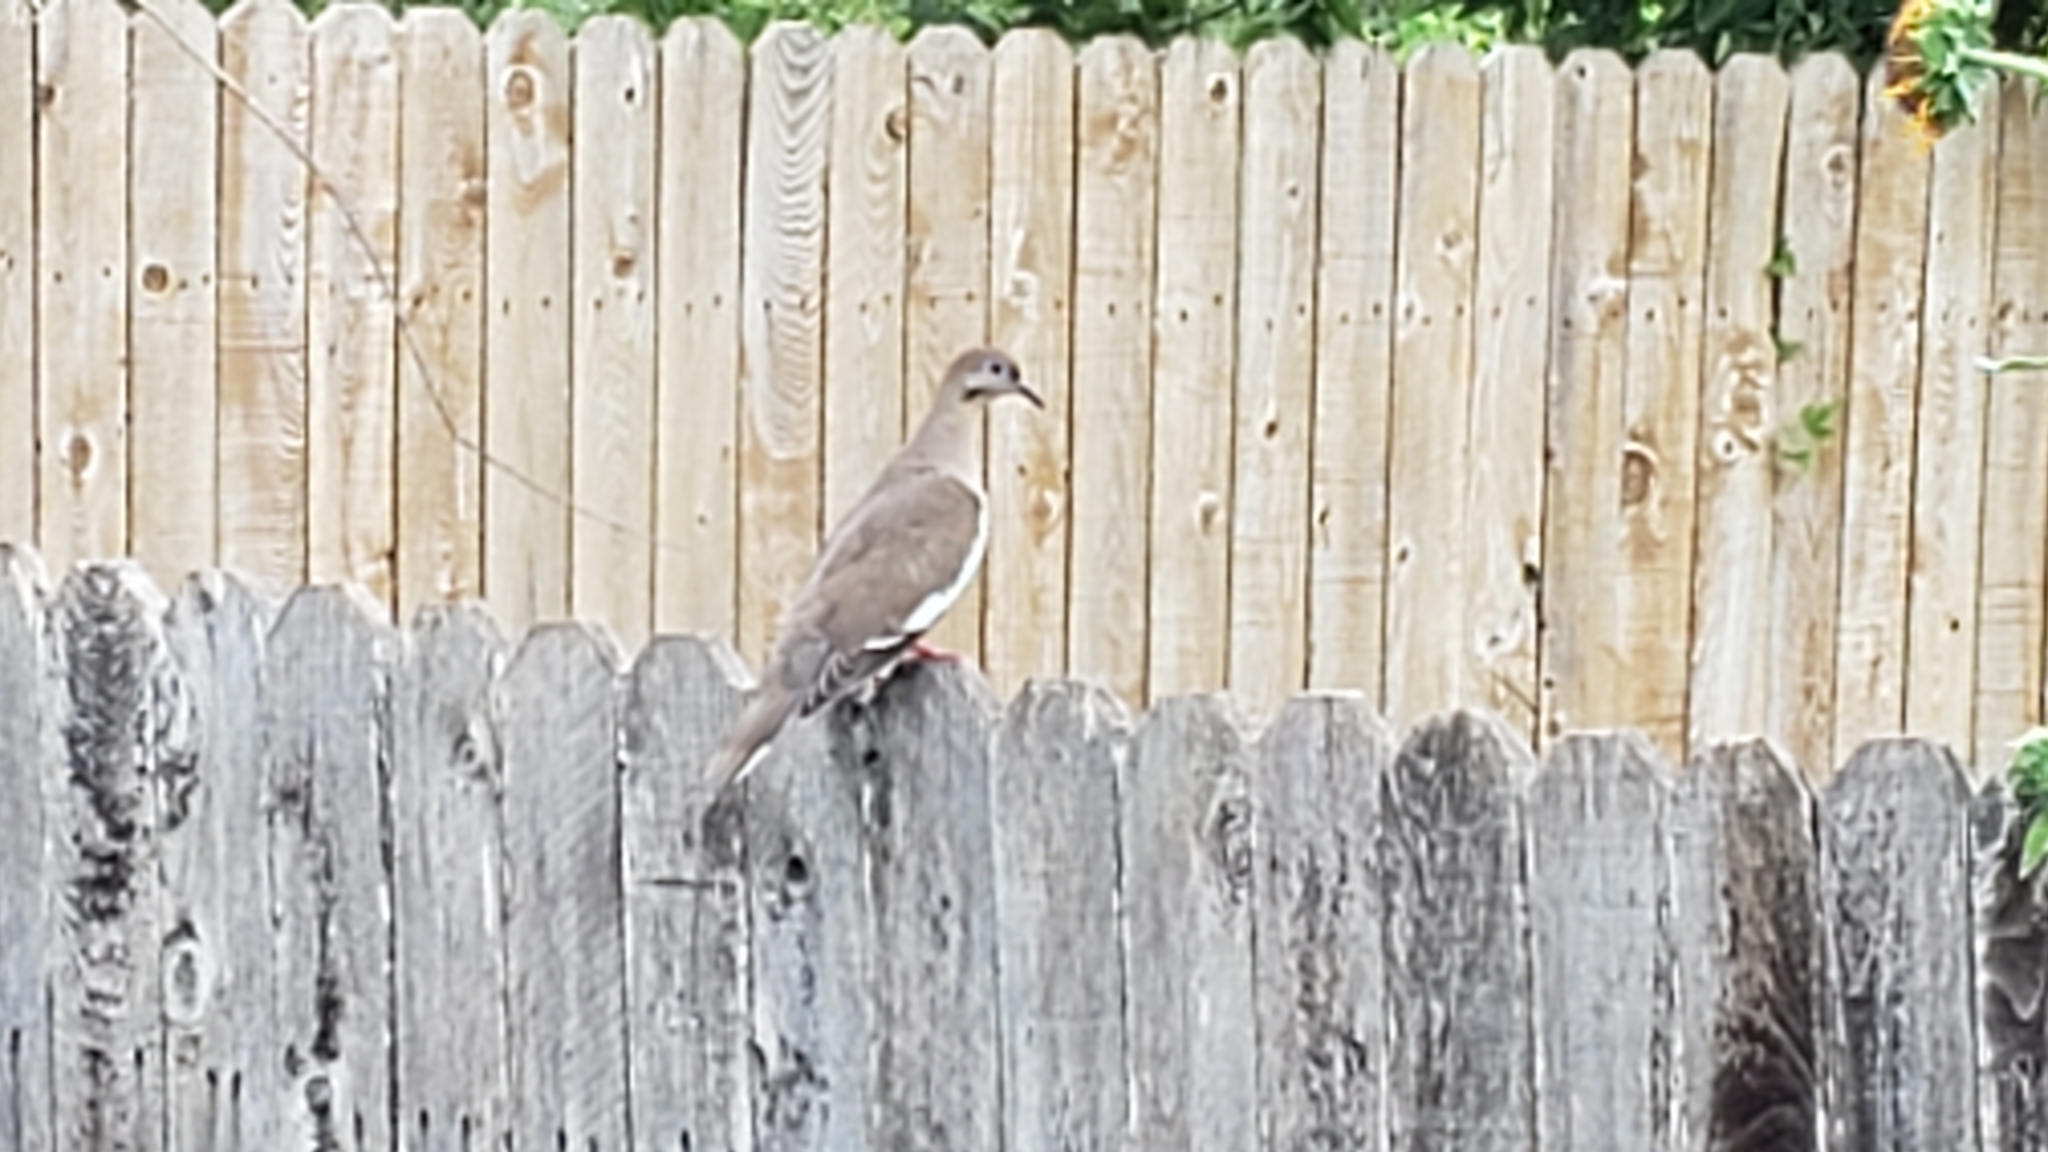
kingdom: Animalia
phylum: Chordata
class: Aves
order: Columbiformes
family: Columbidae
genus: Zenaida
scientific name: Zenaida asiatica
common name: White-winged dove
